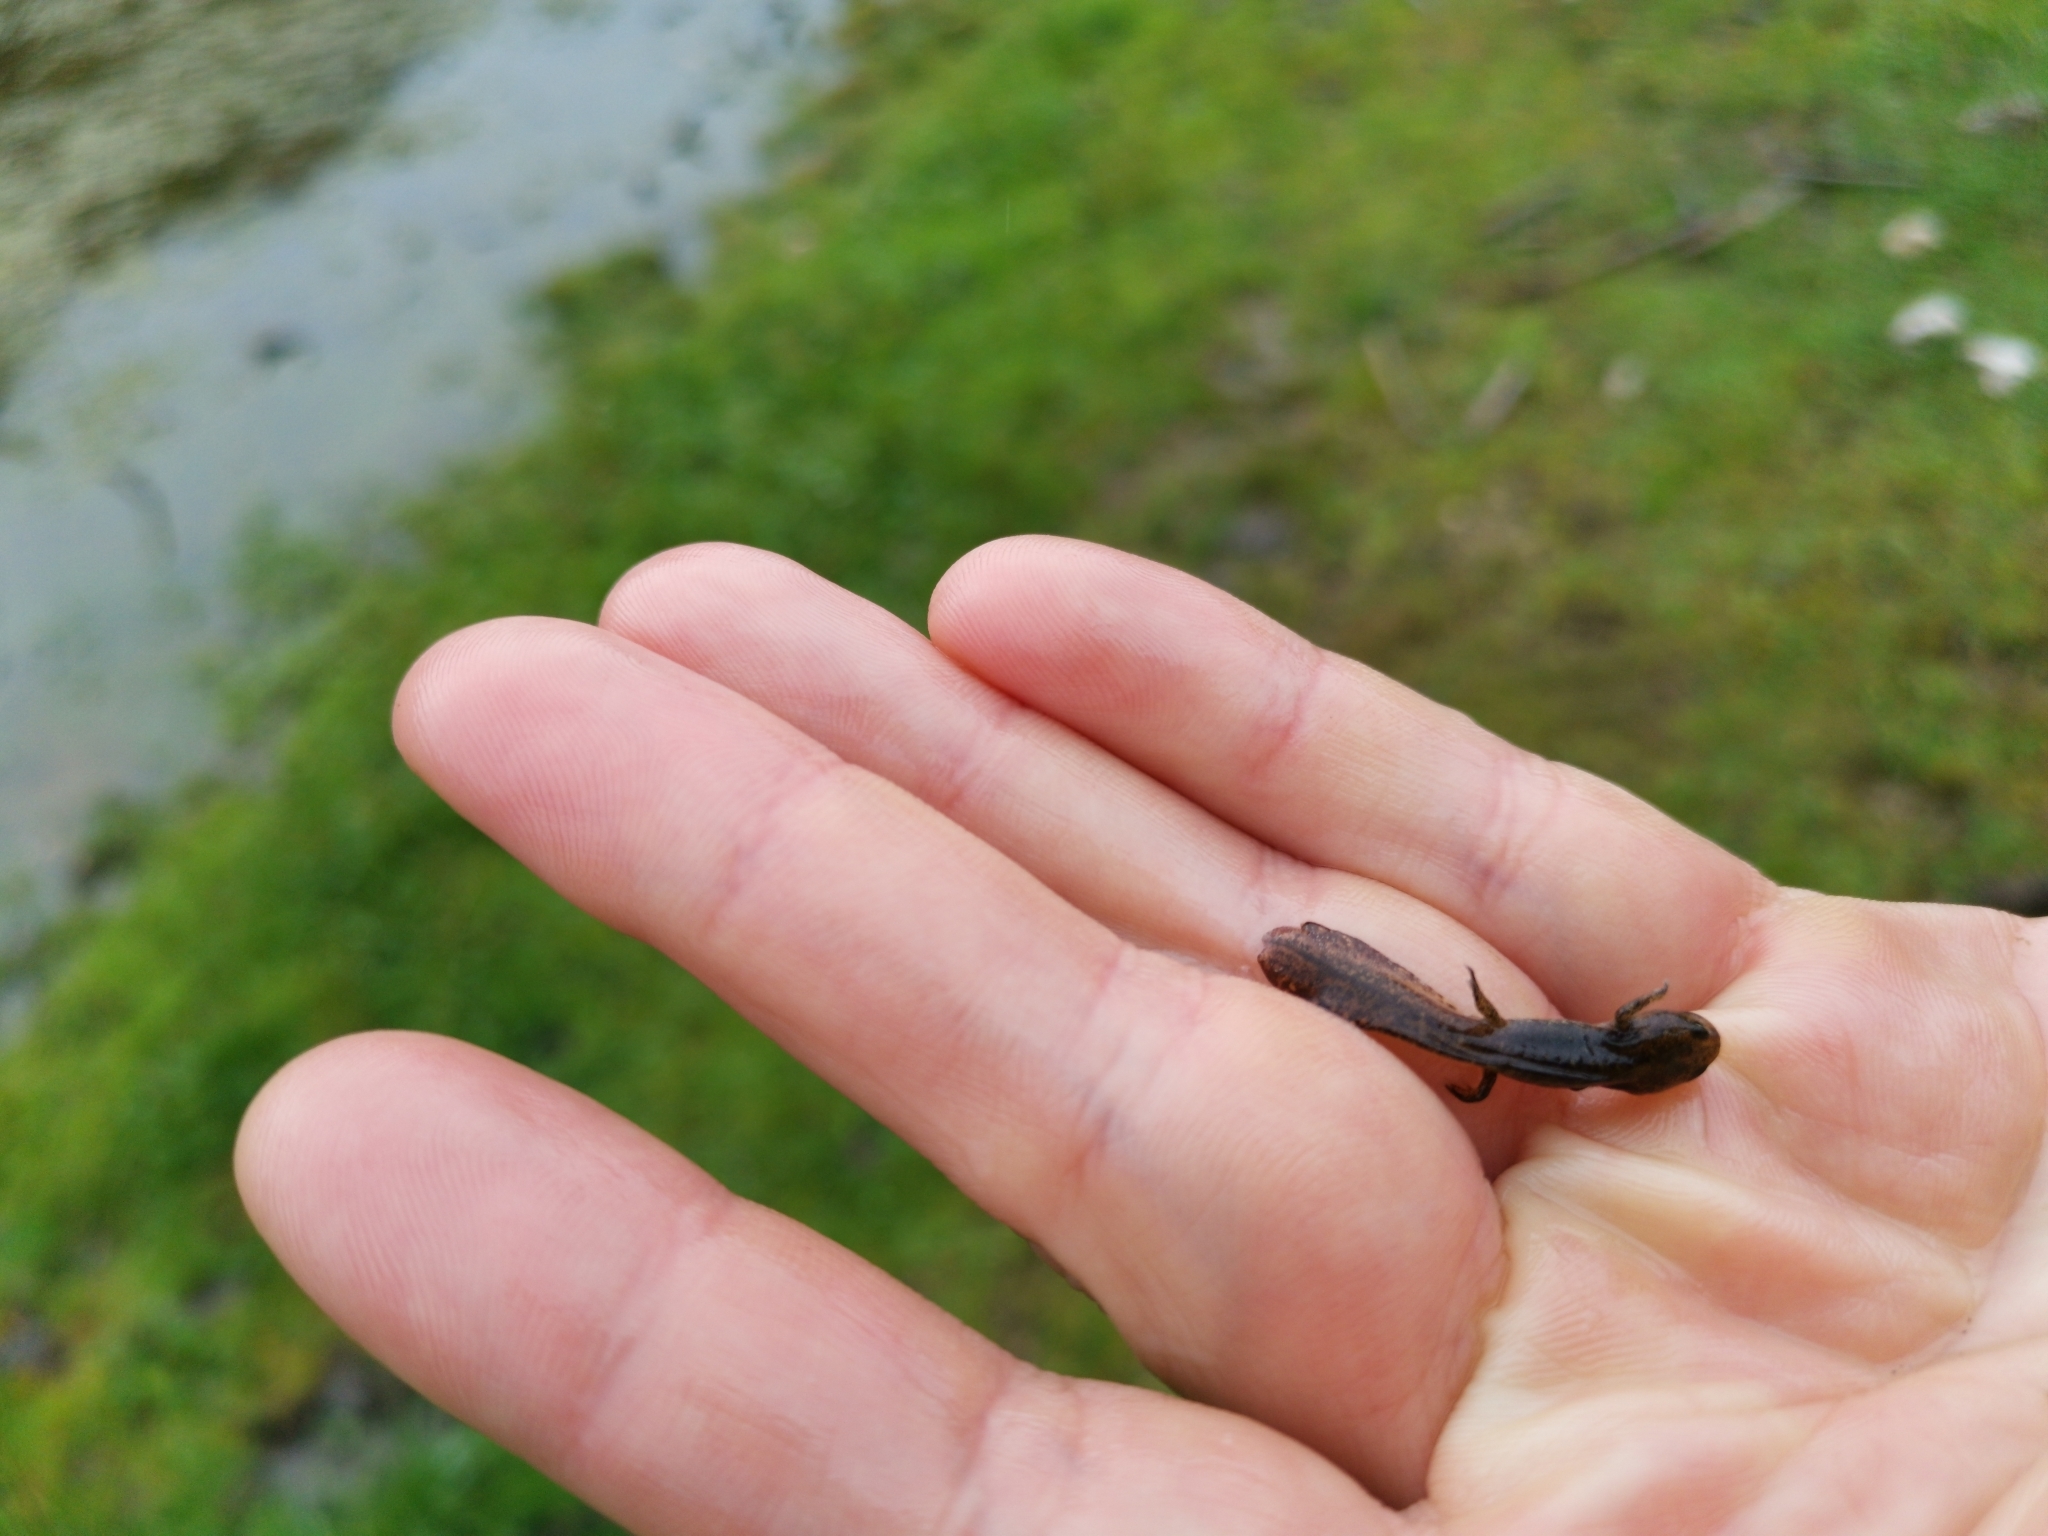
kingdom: Animalia
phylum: Chordata
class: Amphibia
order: Caudata
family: Salamandridae
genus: Ichthyosaura
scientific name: Ichthyosaura alpestris
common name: Alpine newt
